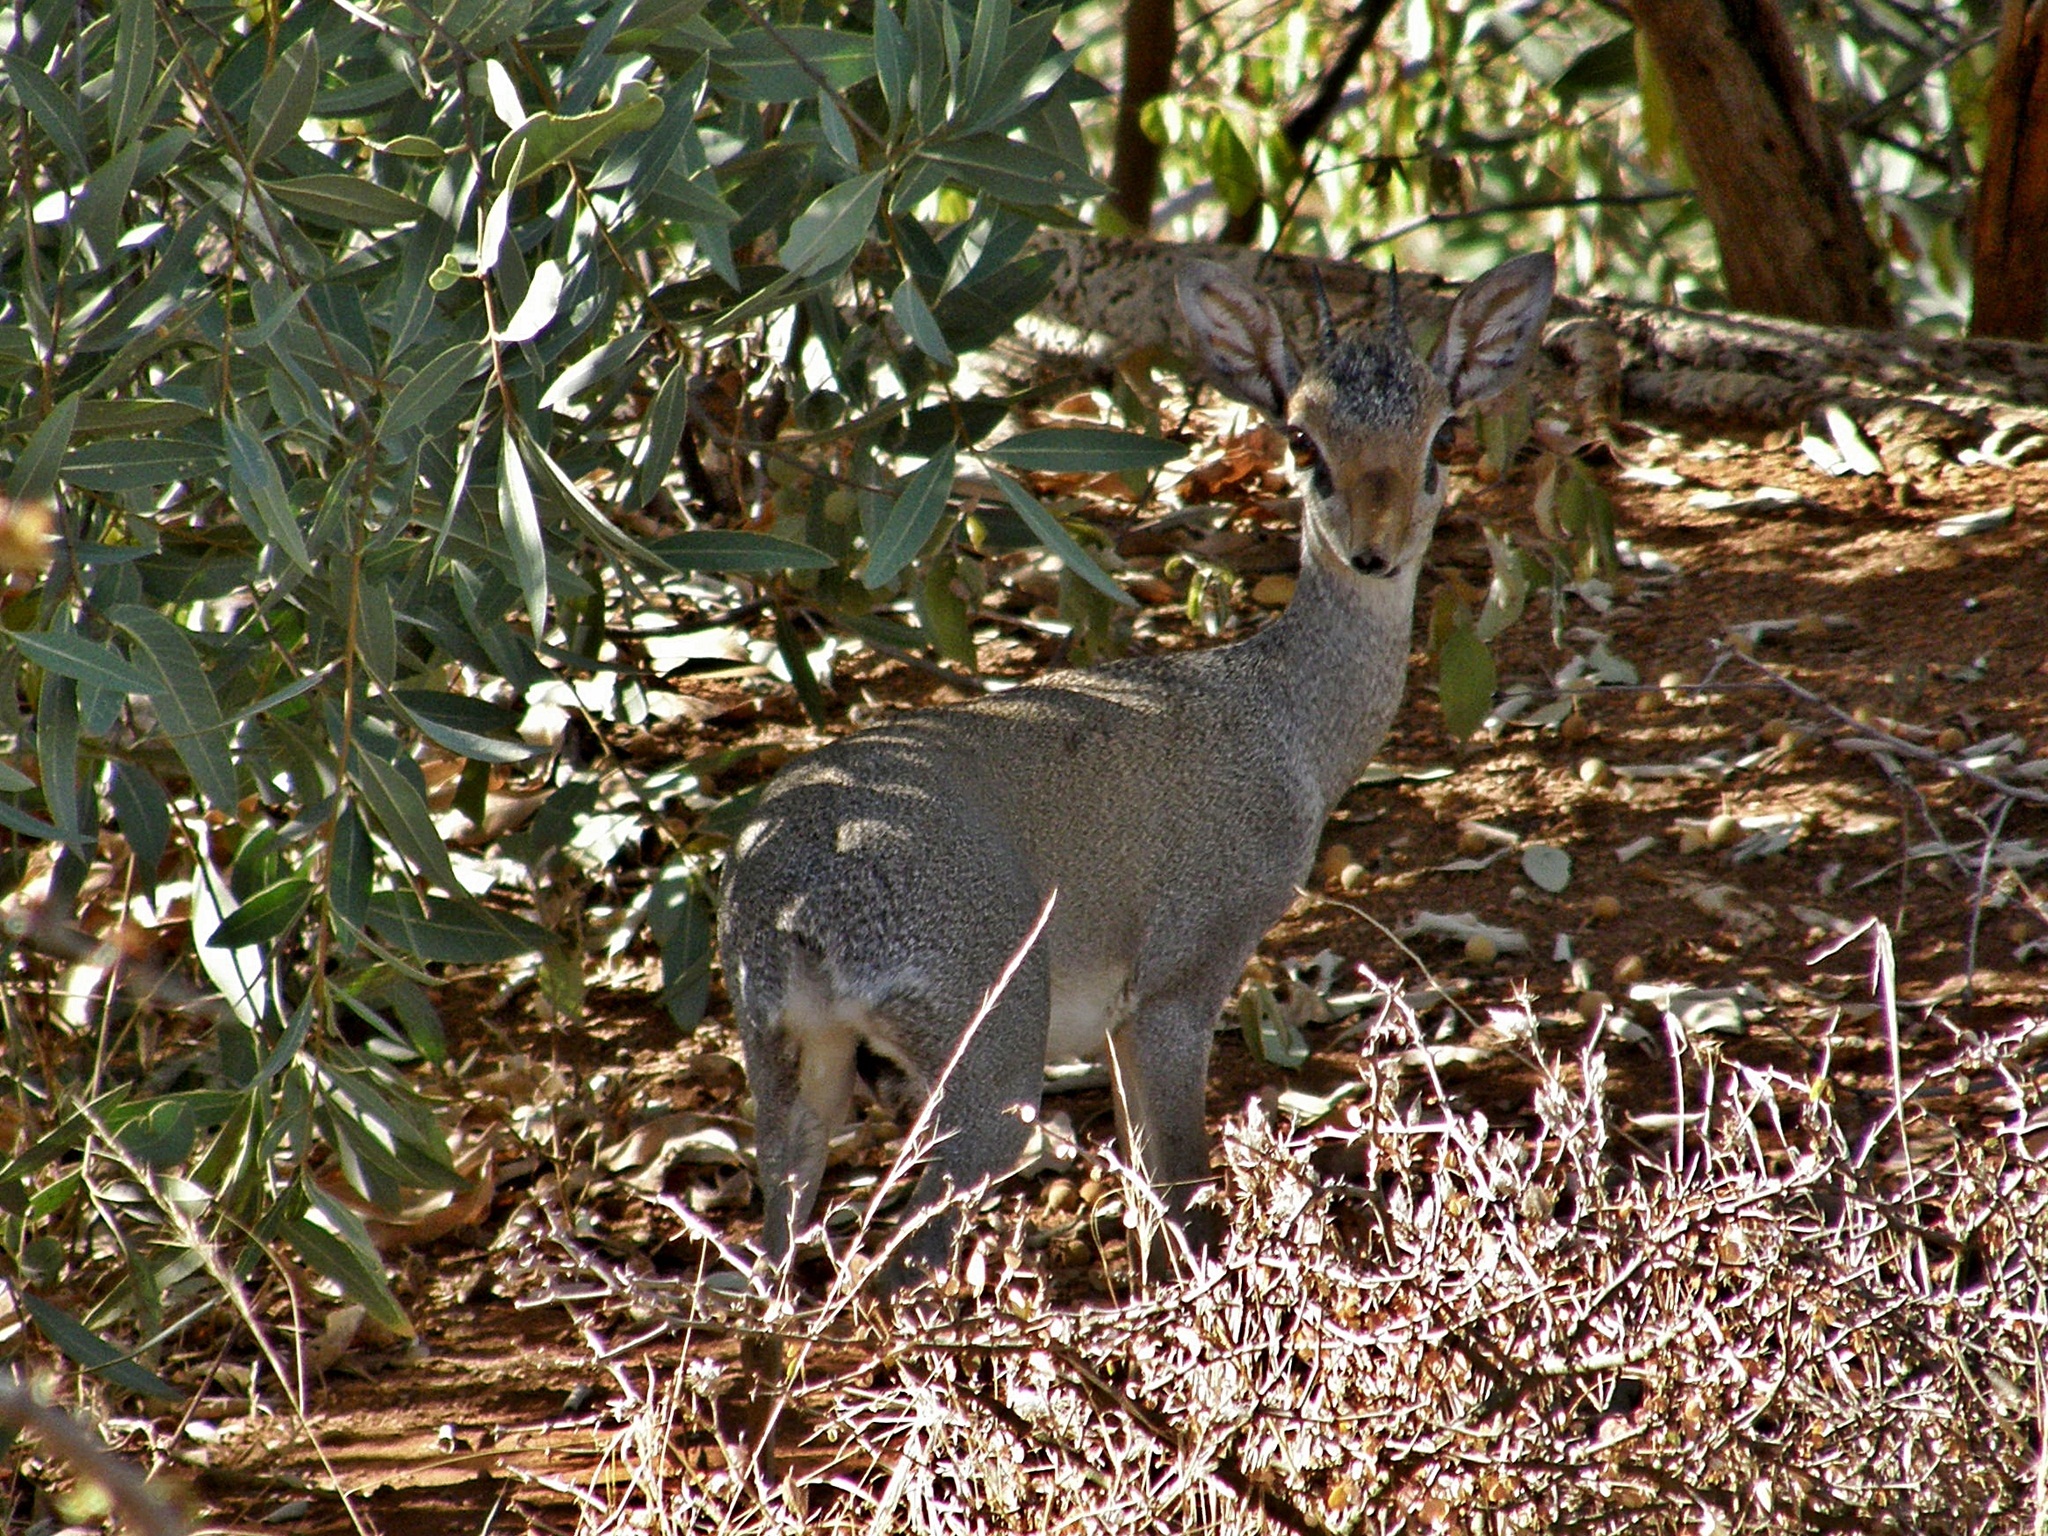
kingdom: Animalia
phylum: Chordata
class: Mammalia
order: Artiodactyla
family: Bovidae
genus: Madoqua
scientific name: Madoqua guentheri
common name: Günther's dikdik
